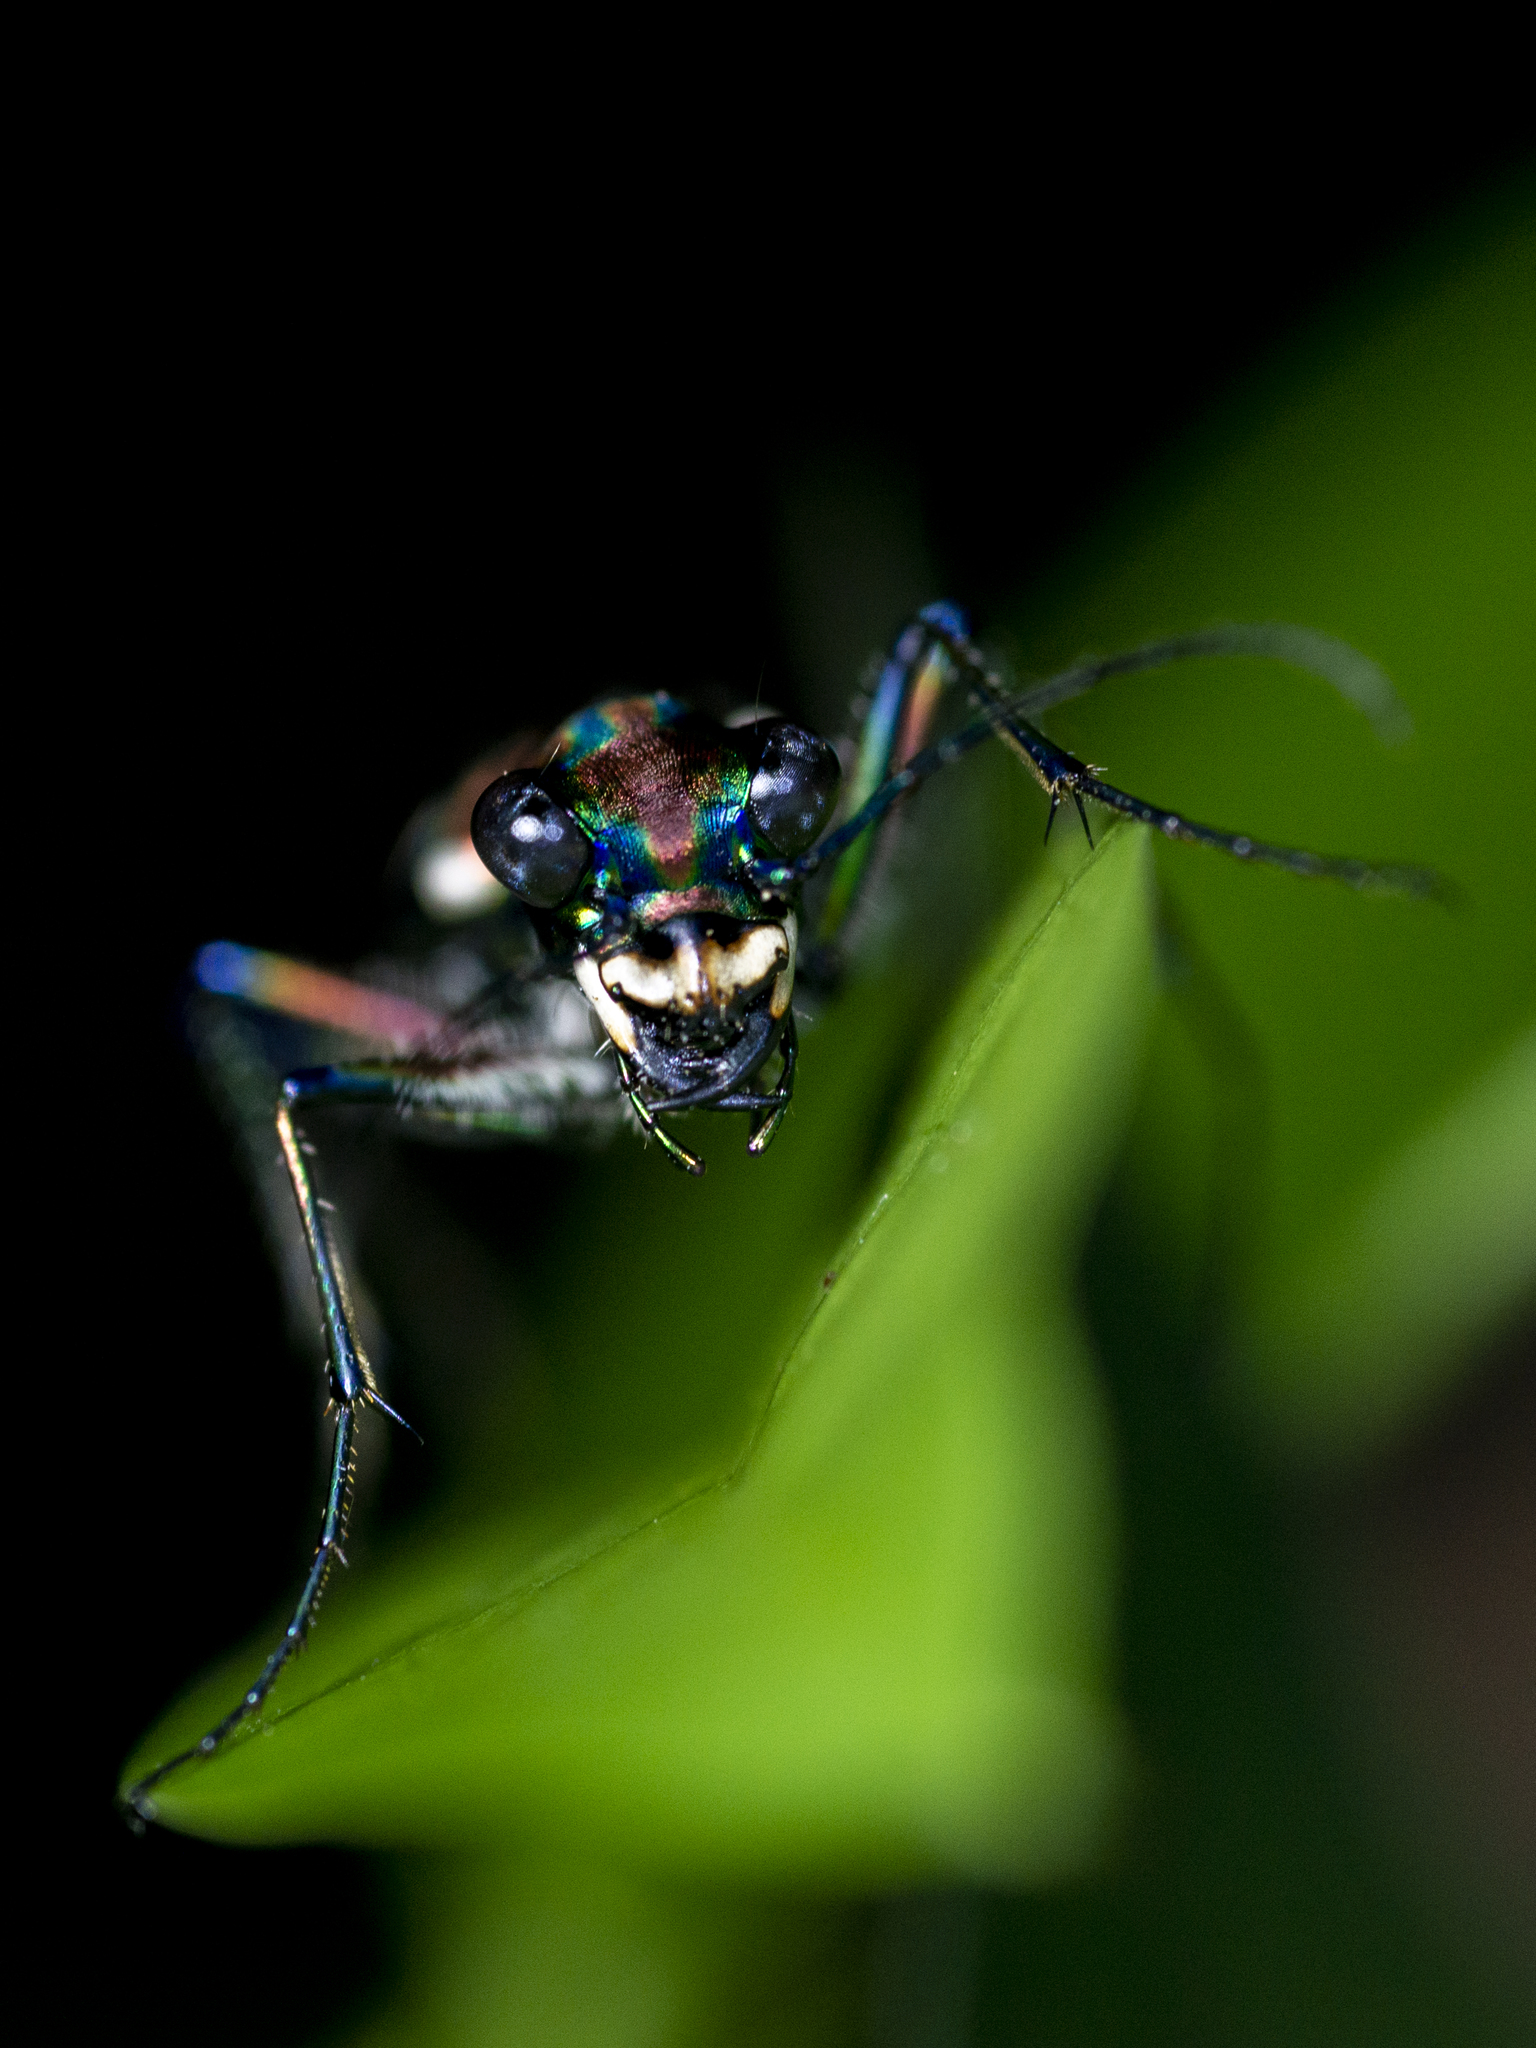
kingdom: Animalia
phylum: Arthropoda
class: Insecta
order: Coleoptera
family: Carabidae
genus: Cicindela
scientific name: Cicindela juxtata
